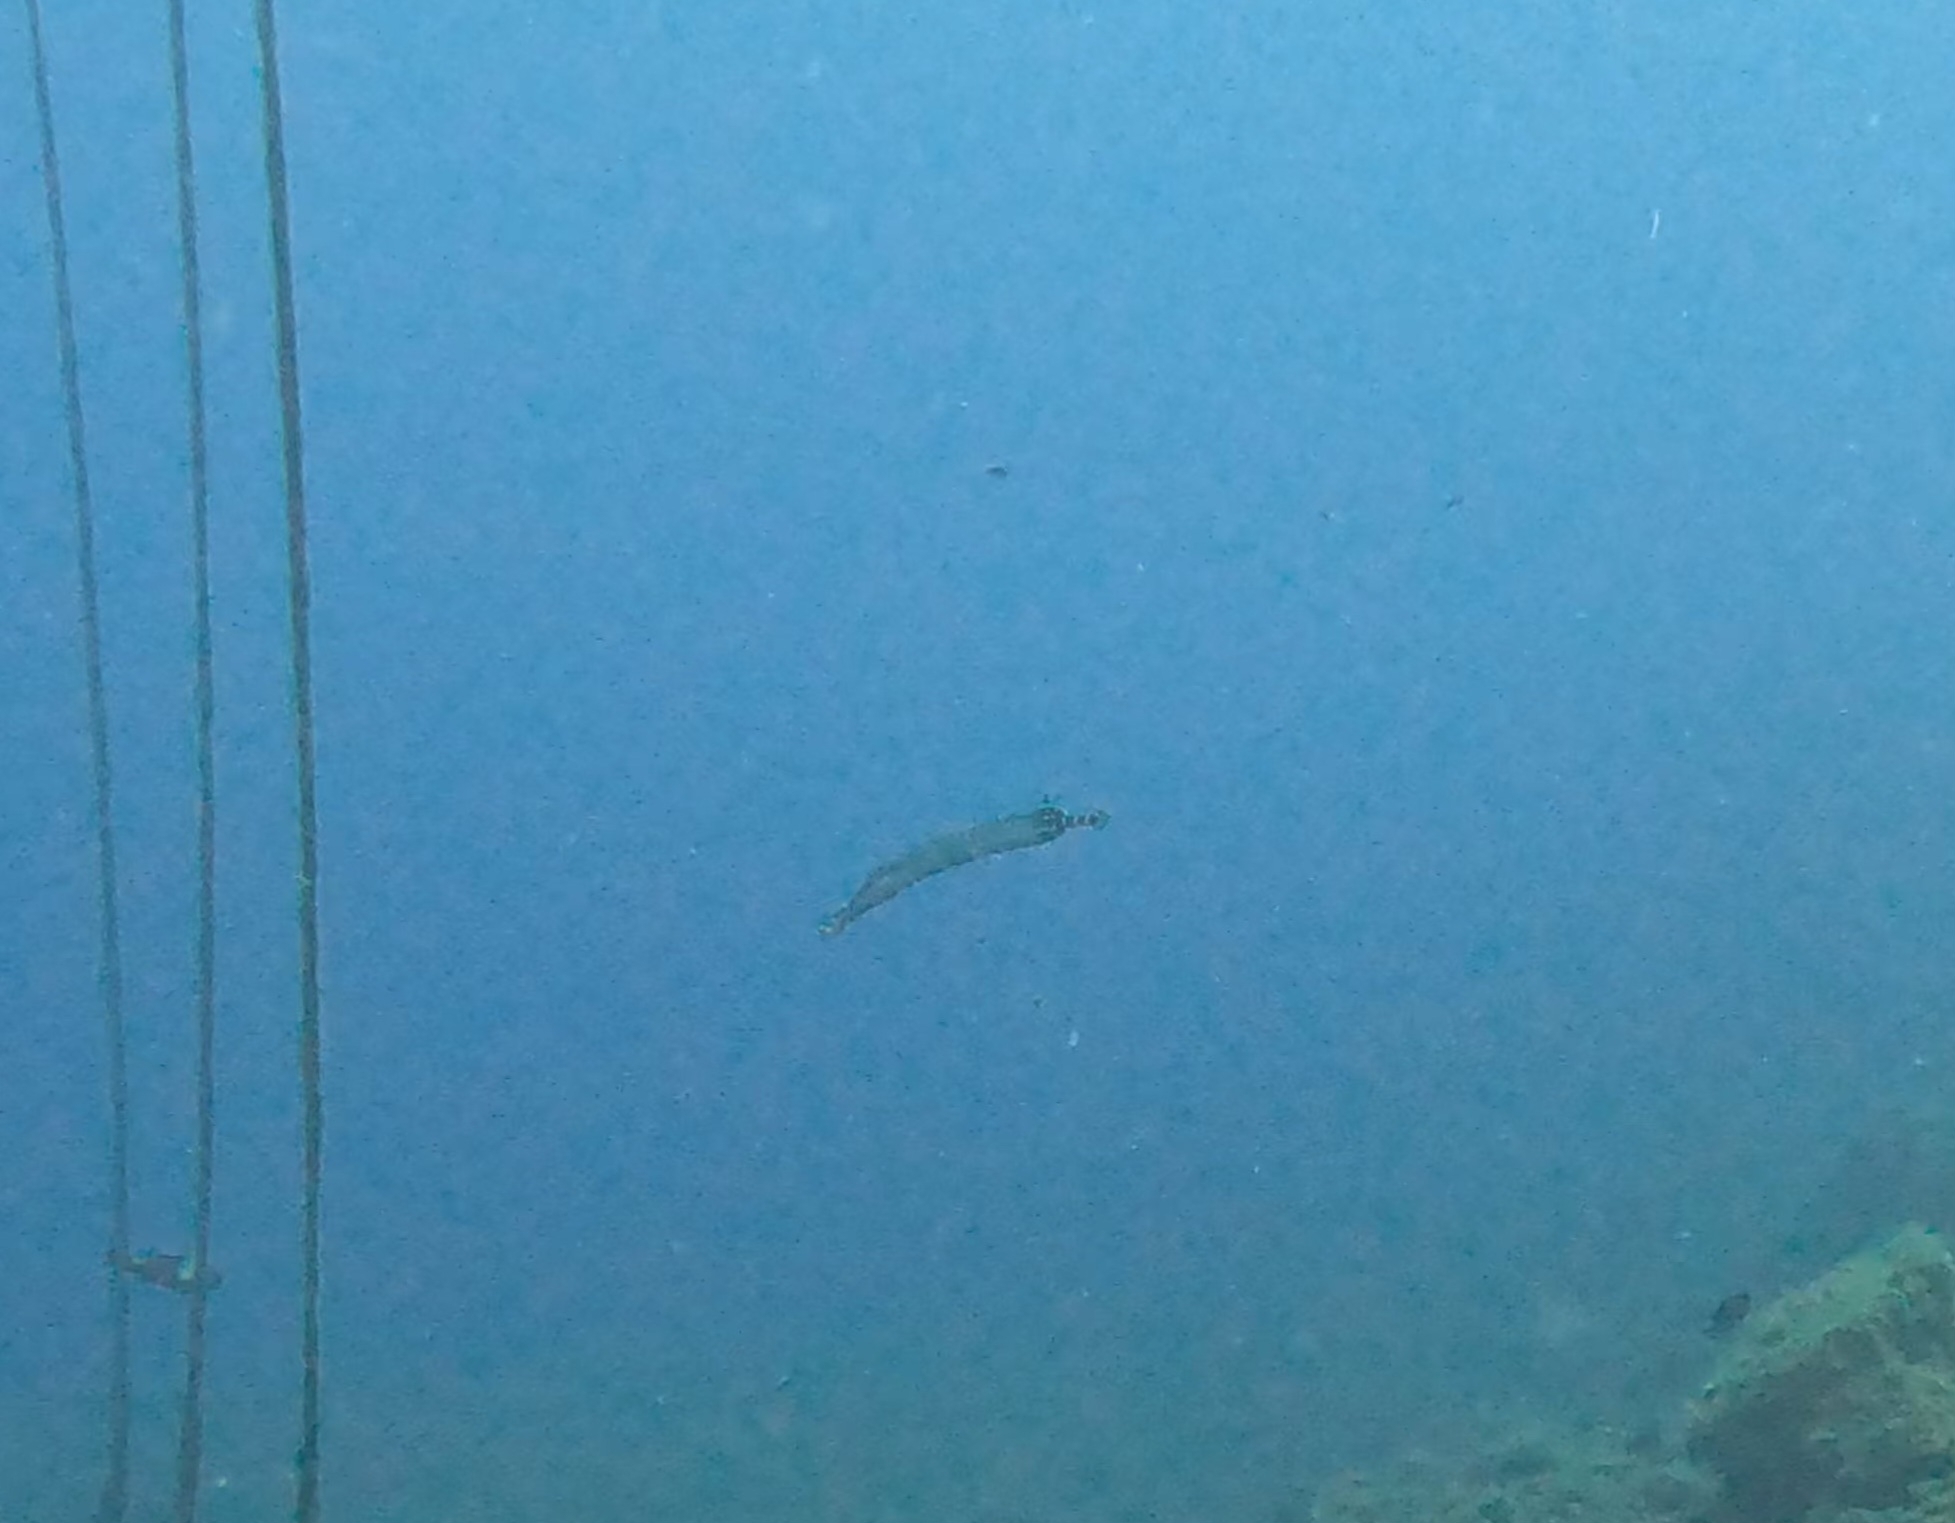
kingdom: Animalia
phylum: Chordata
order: Syngnathiformes
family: Aulostomidae
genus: Aulostomus
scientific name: Aulostomus strigosus
